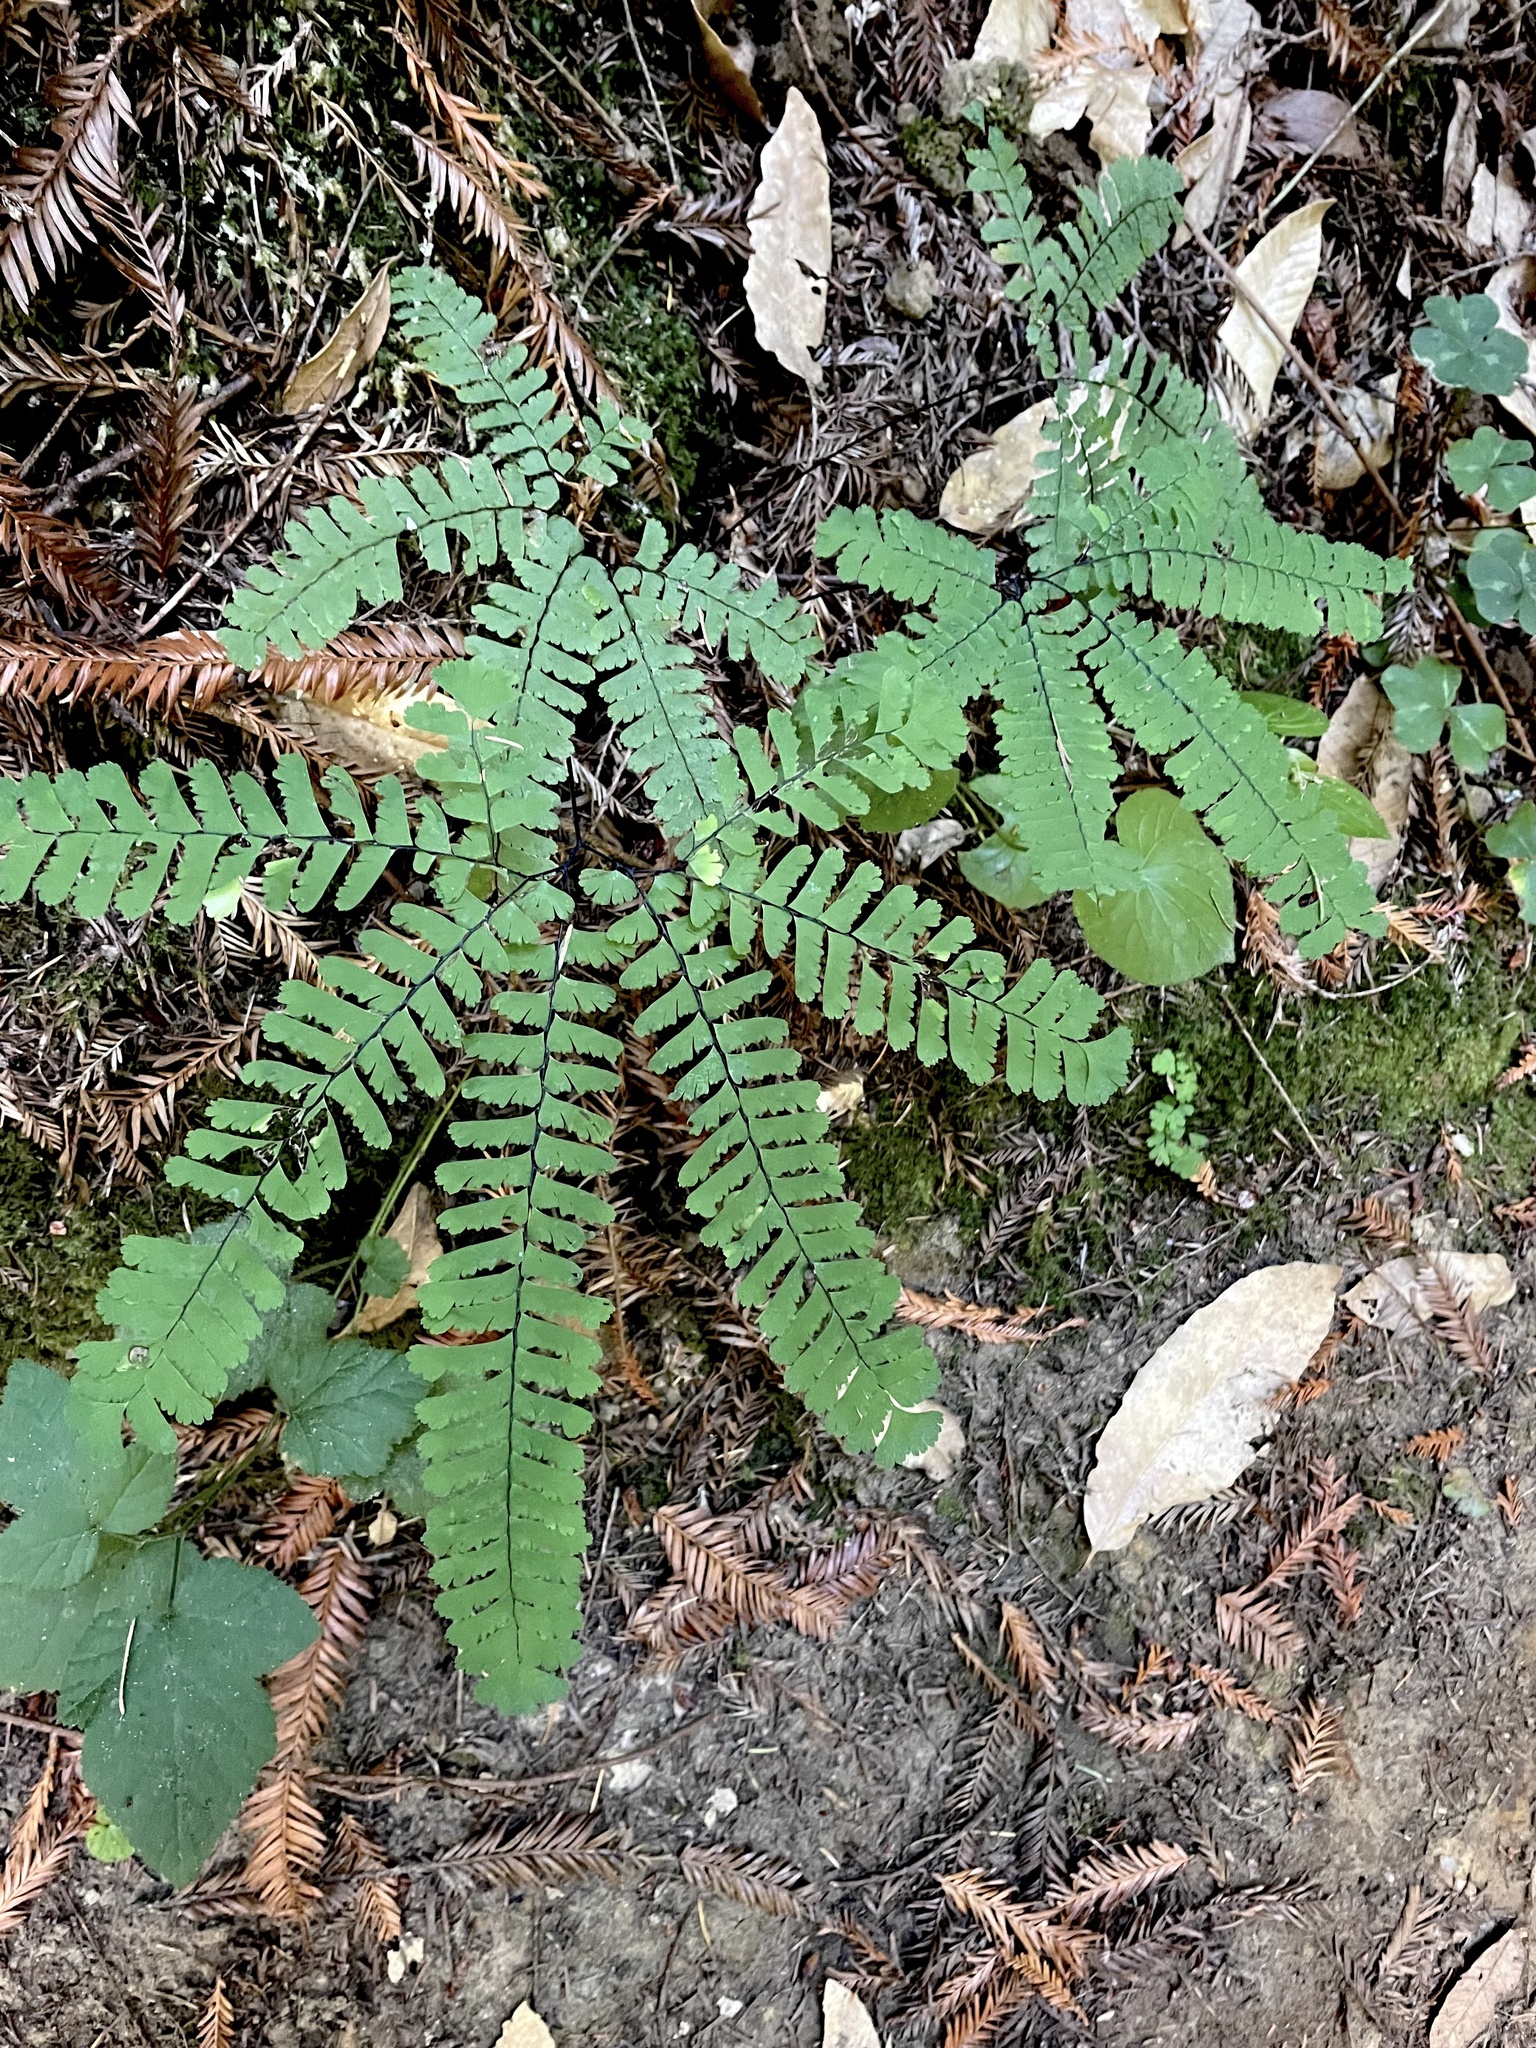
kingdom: Plantae
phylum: Tracheophyta
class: Polypodiopsida
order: Polypodiales
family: Pteridaceae
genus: Adiantum
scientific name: Adiantum aleuticum
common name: Aleutian maidenhair fern
